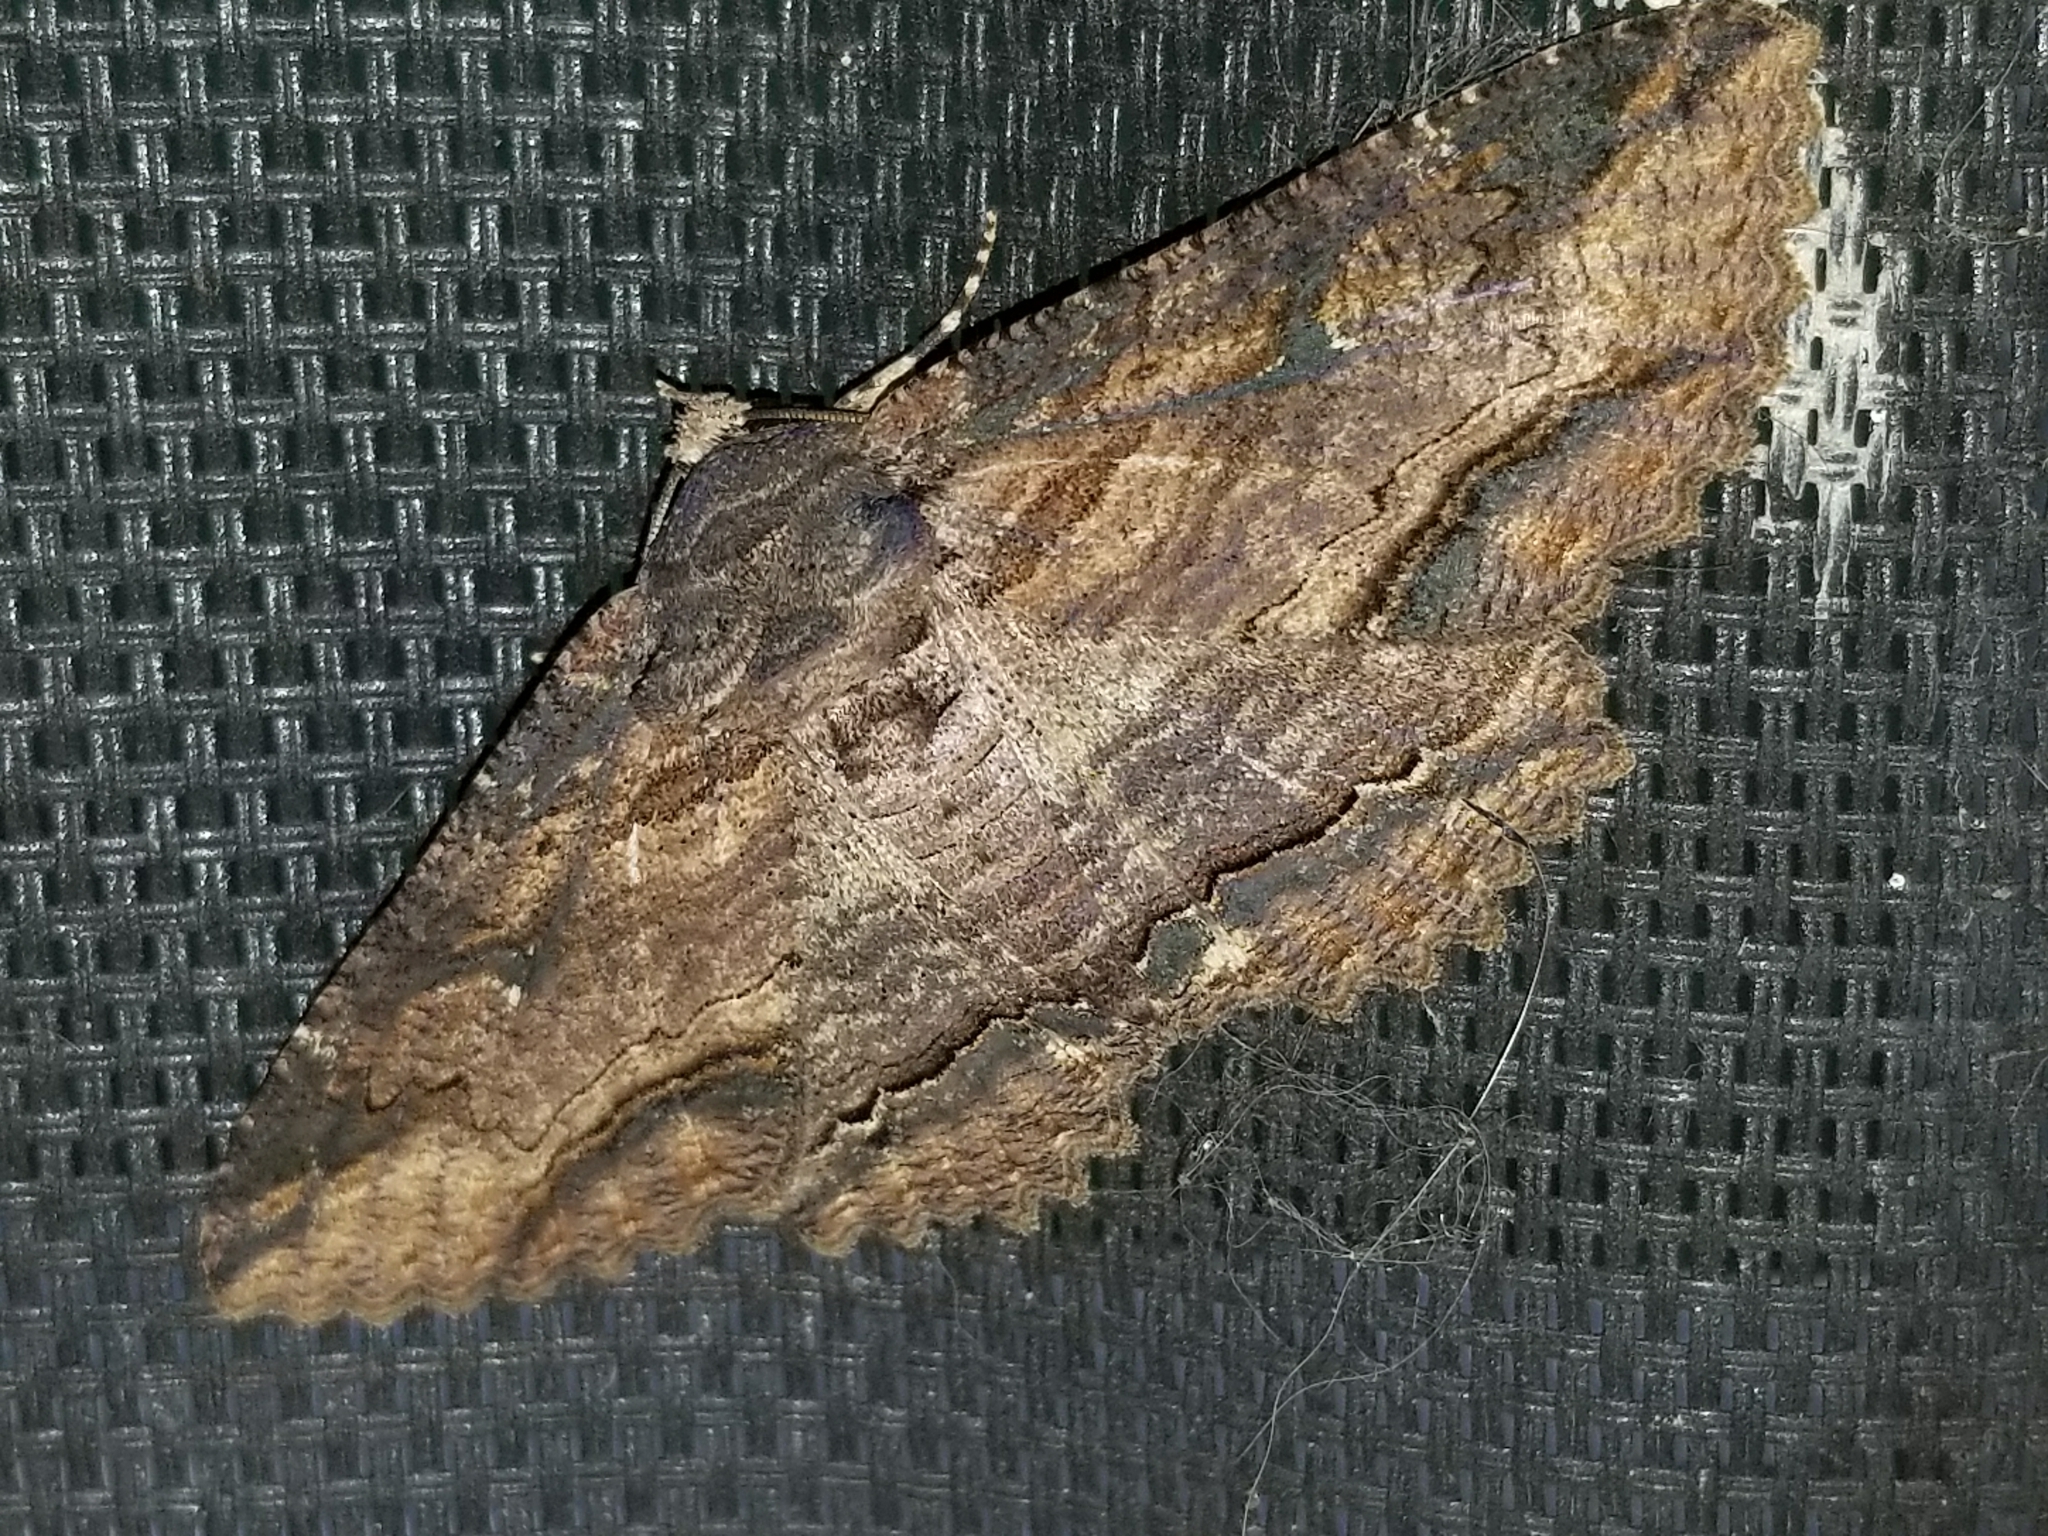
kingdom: Animalia
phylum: Arthropoda
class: Insecta
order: Lepidoptera
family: Erebidae
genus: Zale
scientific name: Zale lunata
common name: Lunate zale moth
